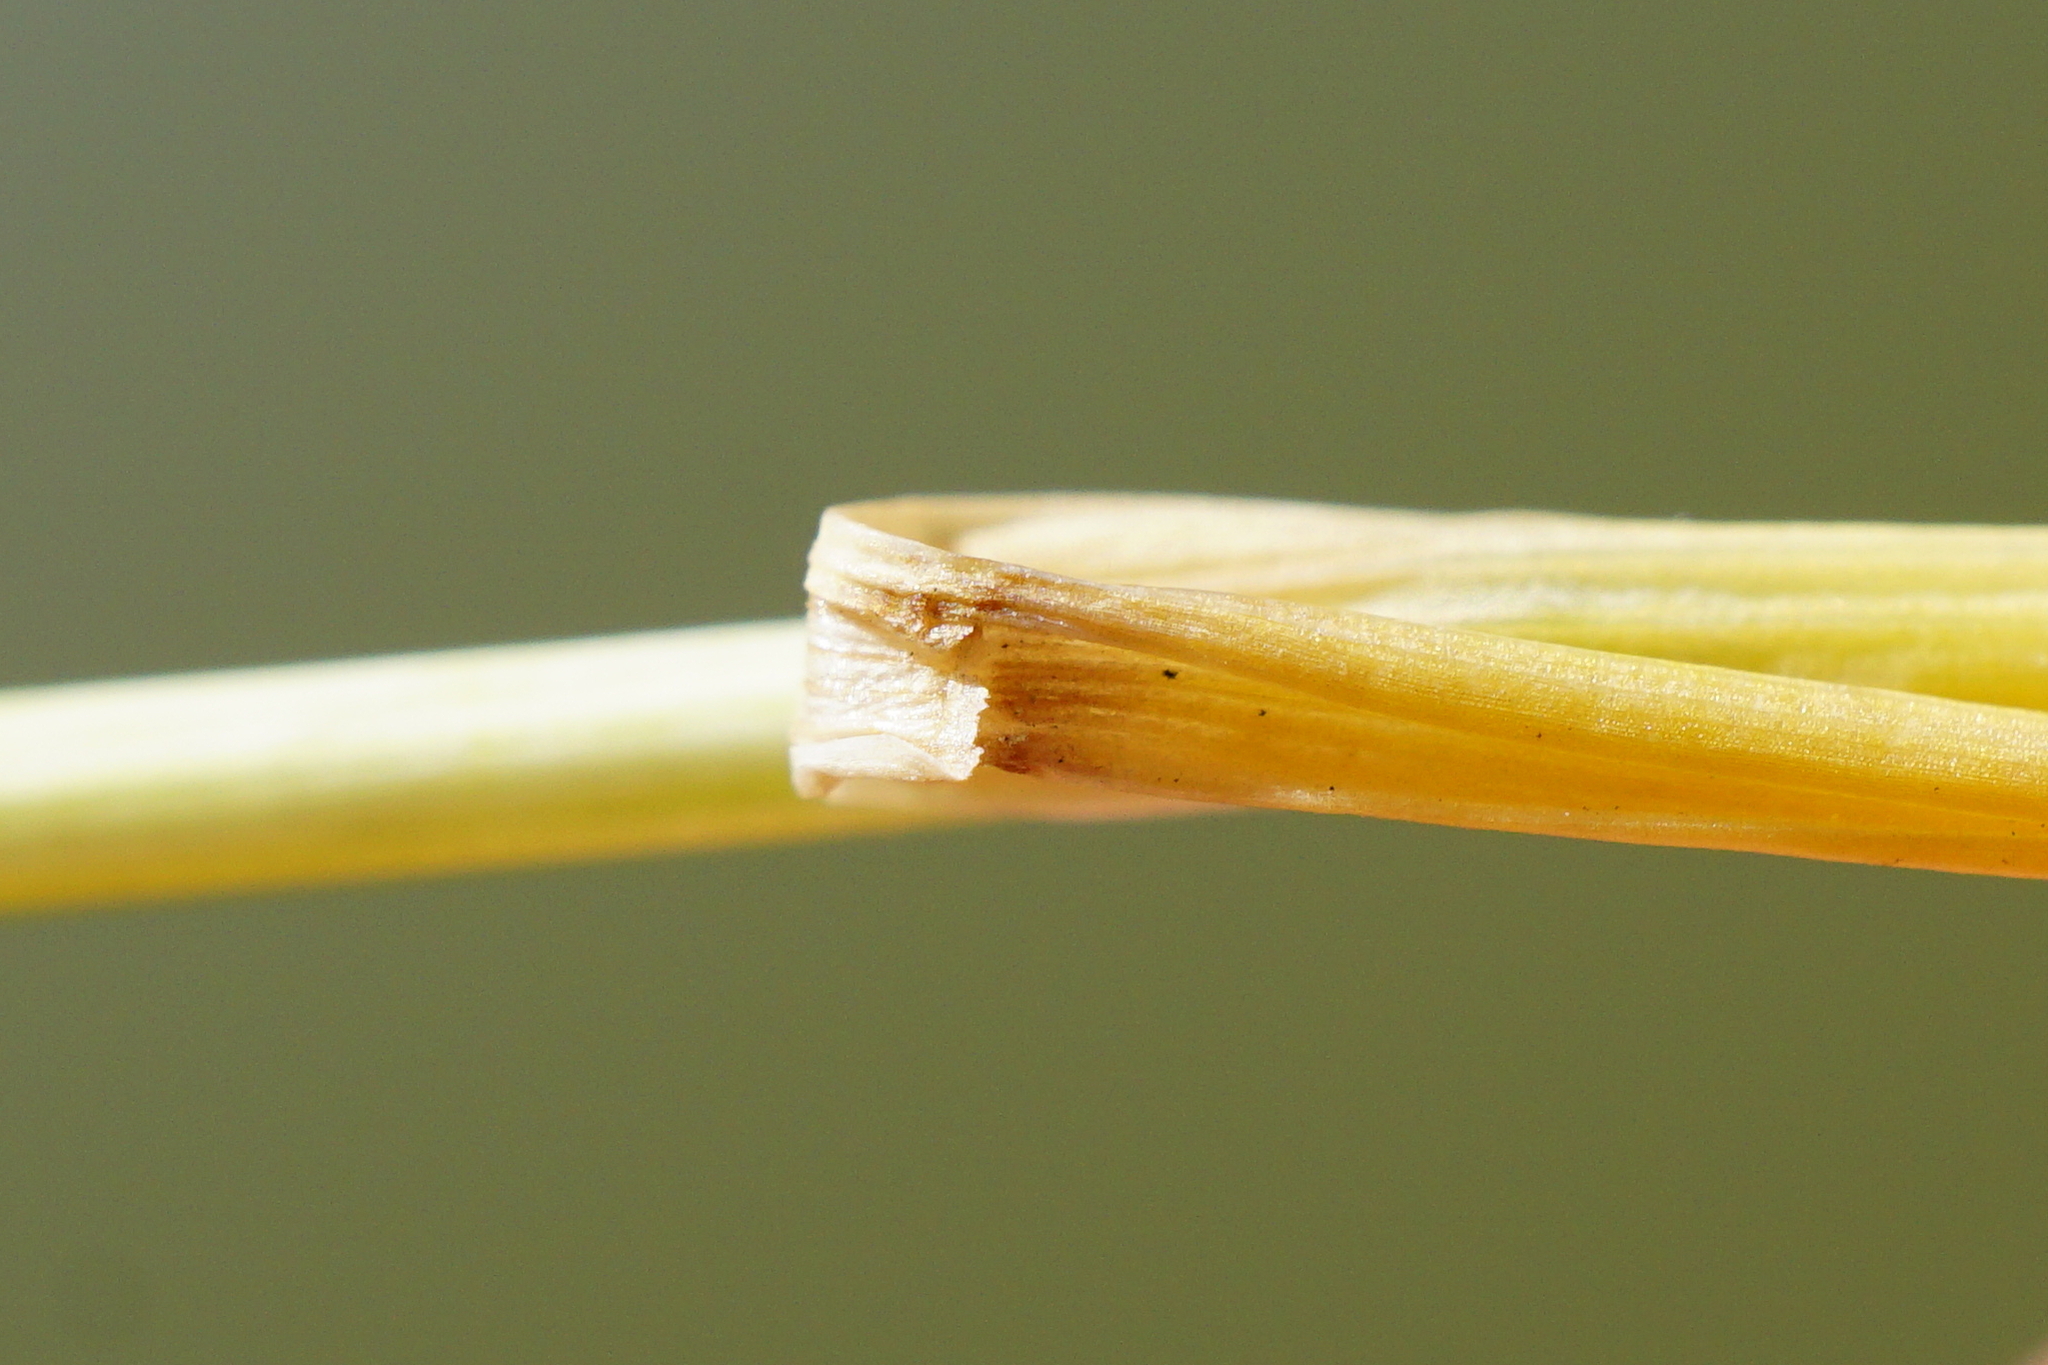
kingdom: Plantae
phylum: Tracheophyta
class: Liliopsida
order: Poales
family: Poaceae
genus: Festuca
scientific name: Festuca myuros
